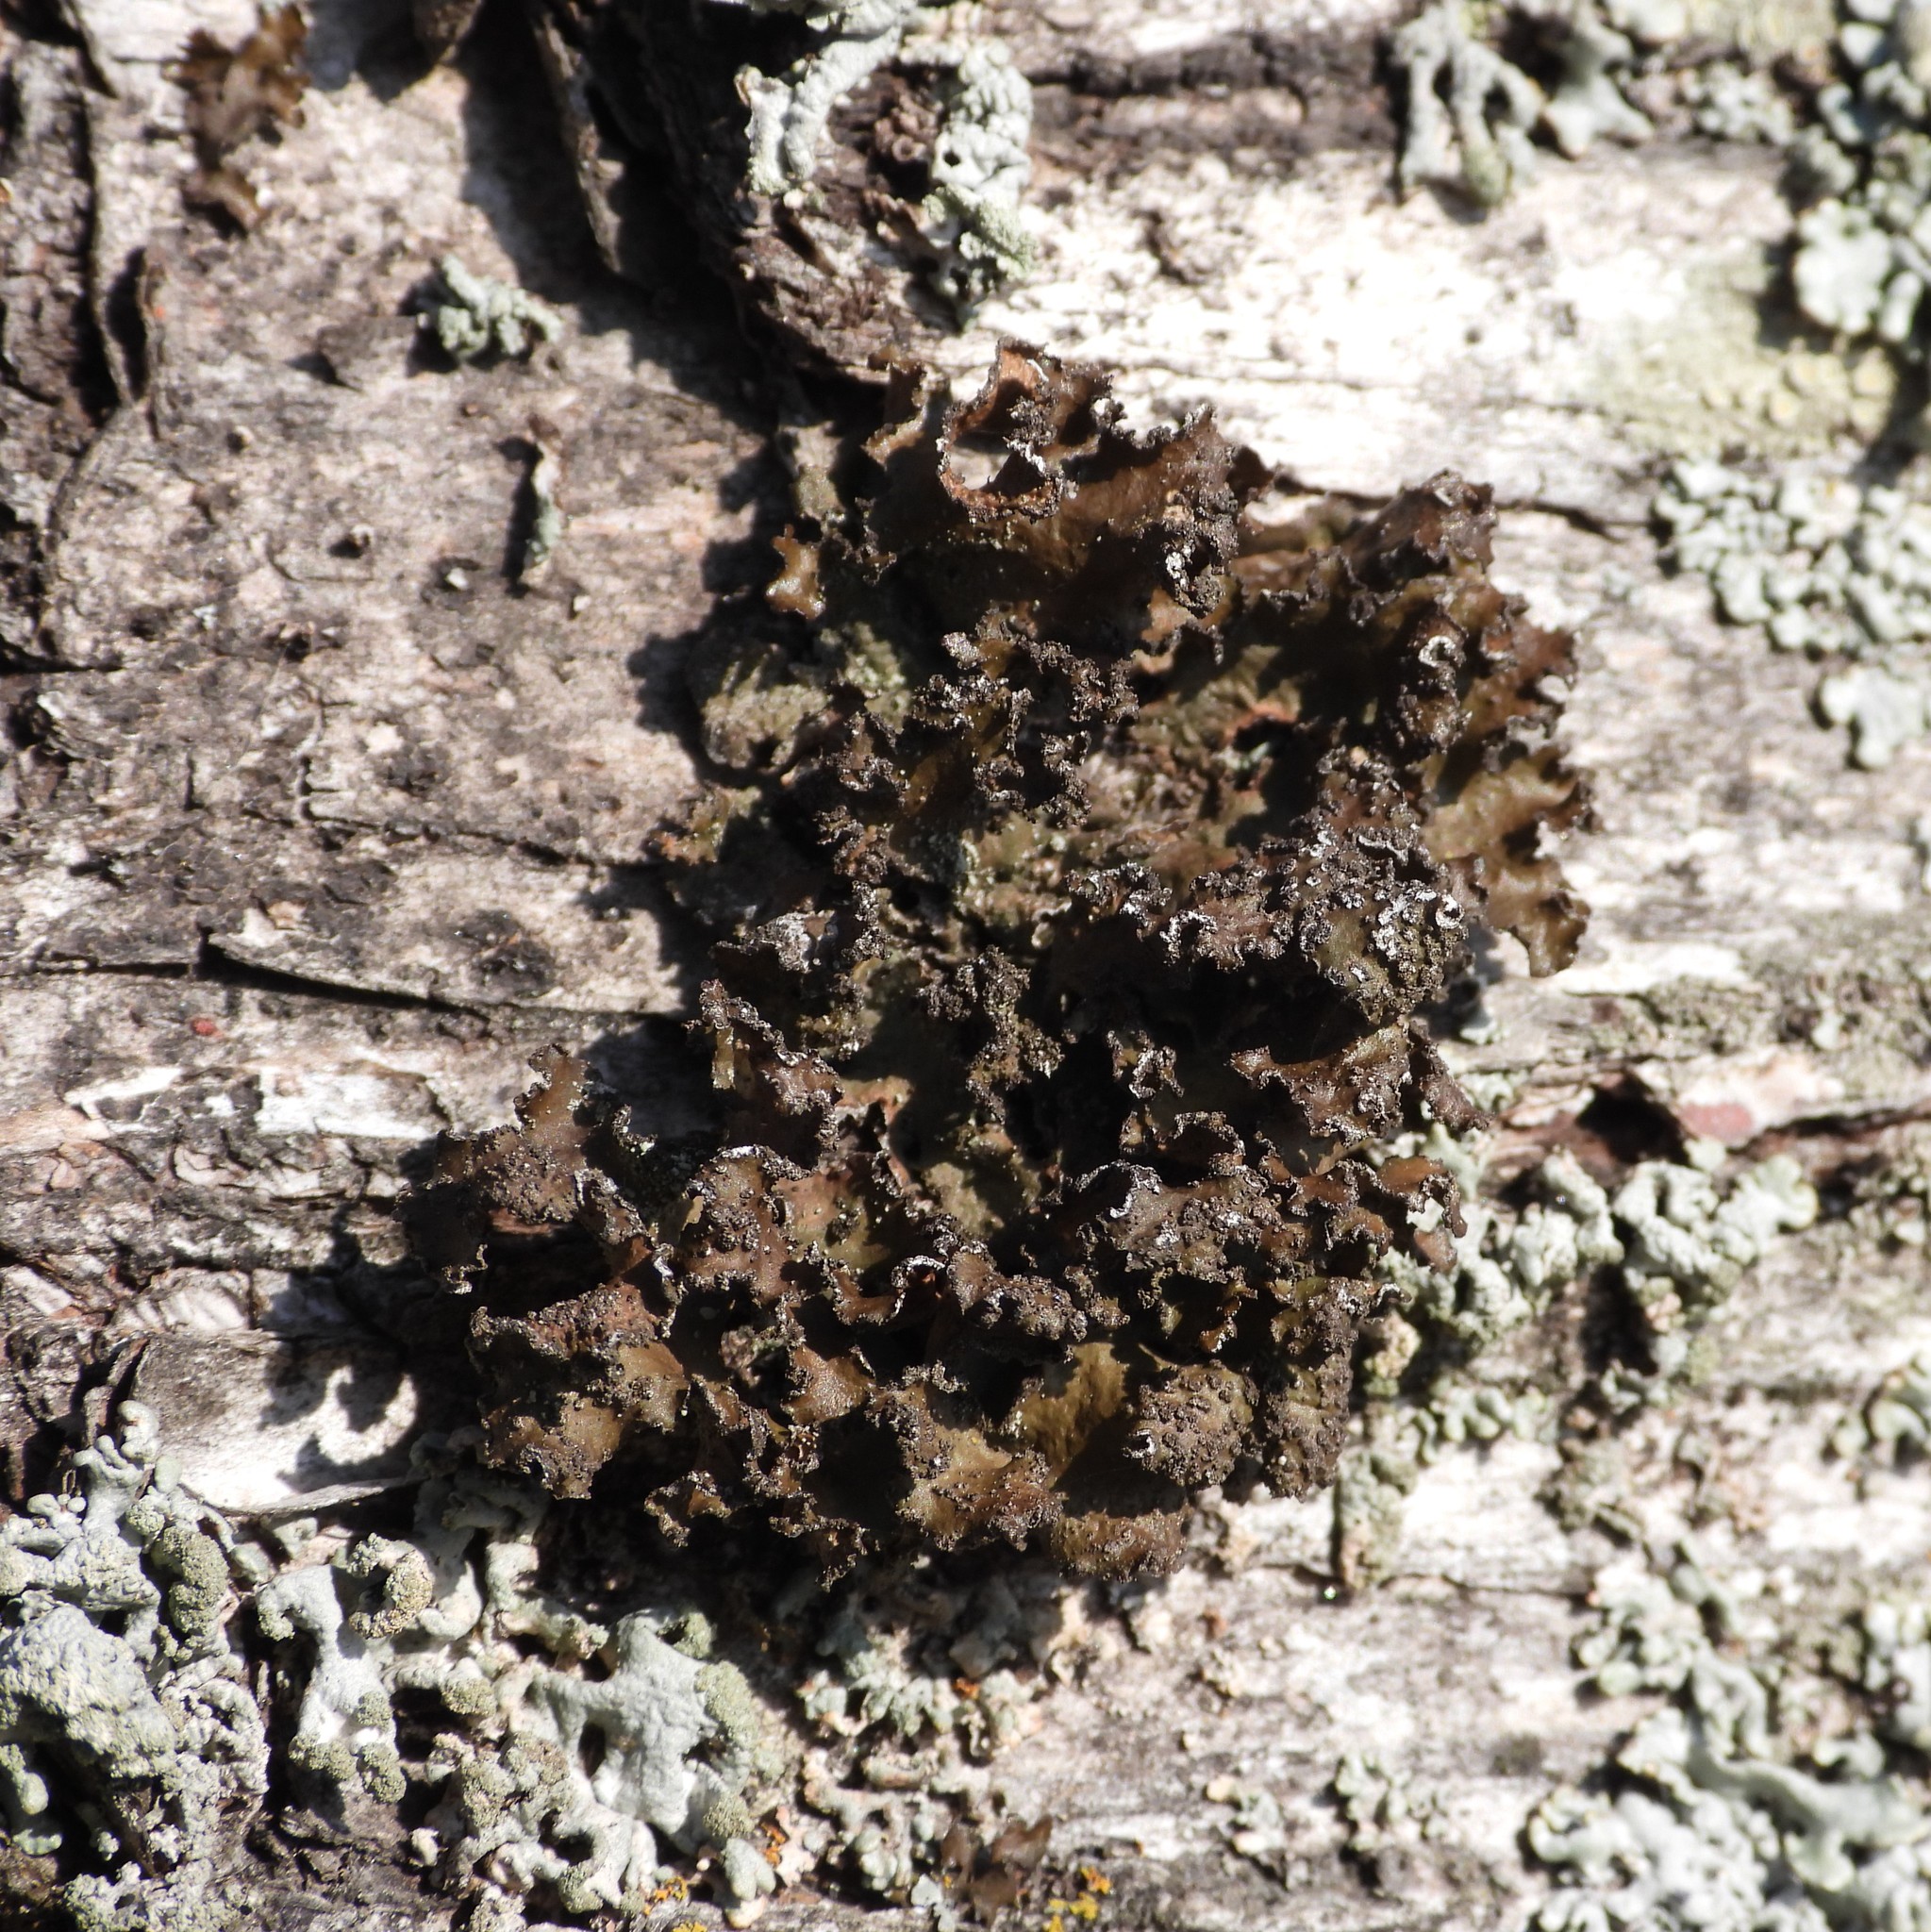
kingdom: Fungi
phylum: Ascomycota
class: Lecanoromycetes
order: Lecanorales
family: Parmeliaceae
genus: Nephromopsis
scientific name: Nephromopsis chlorophylla
